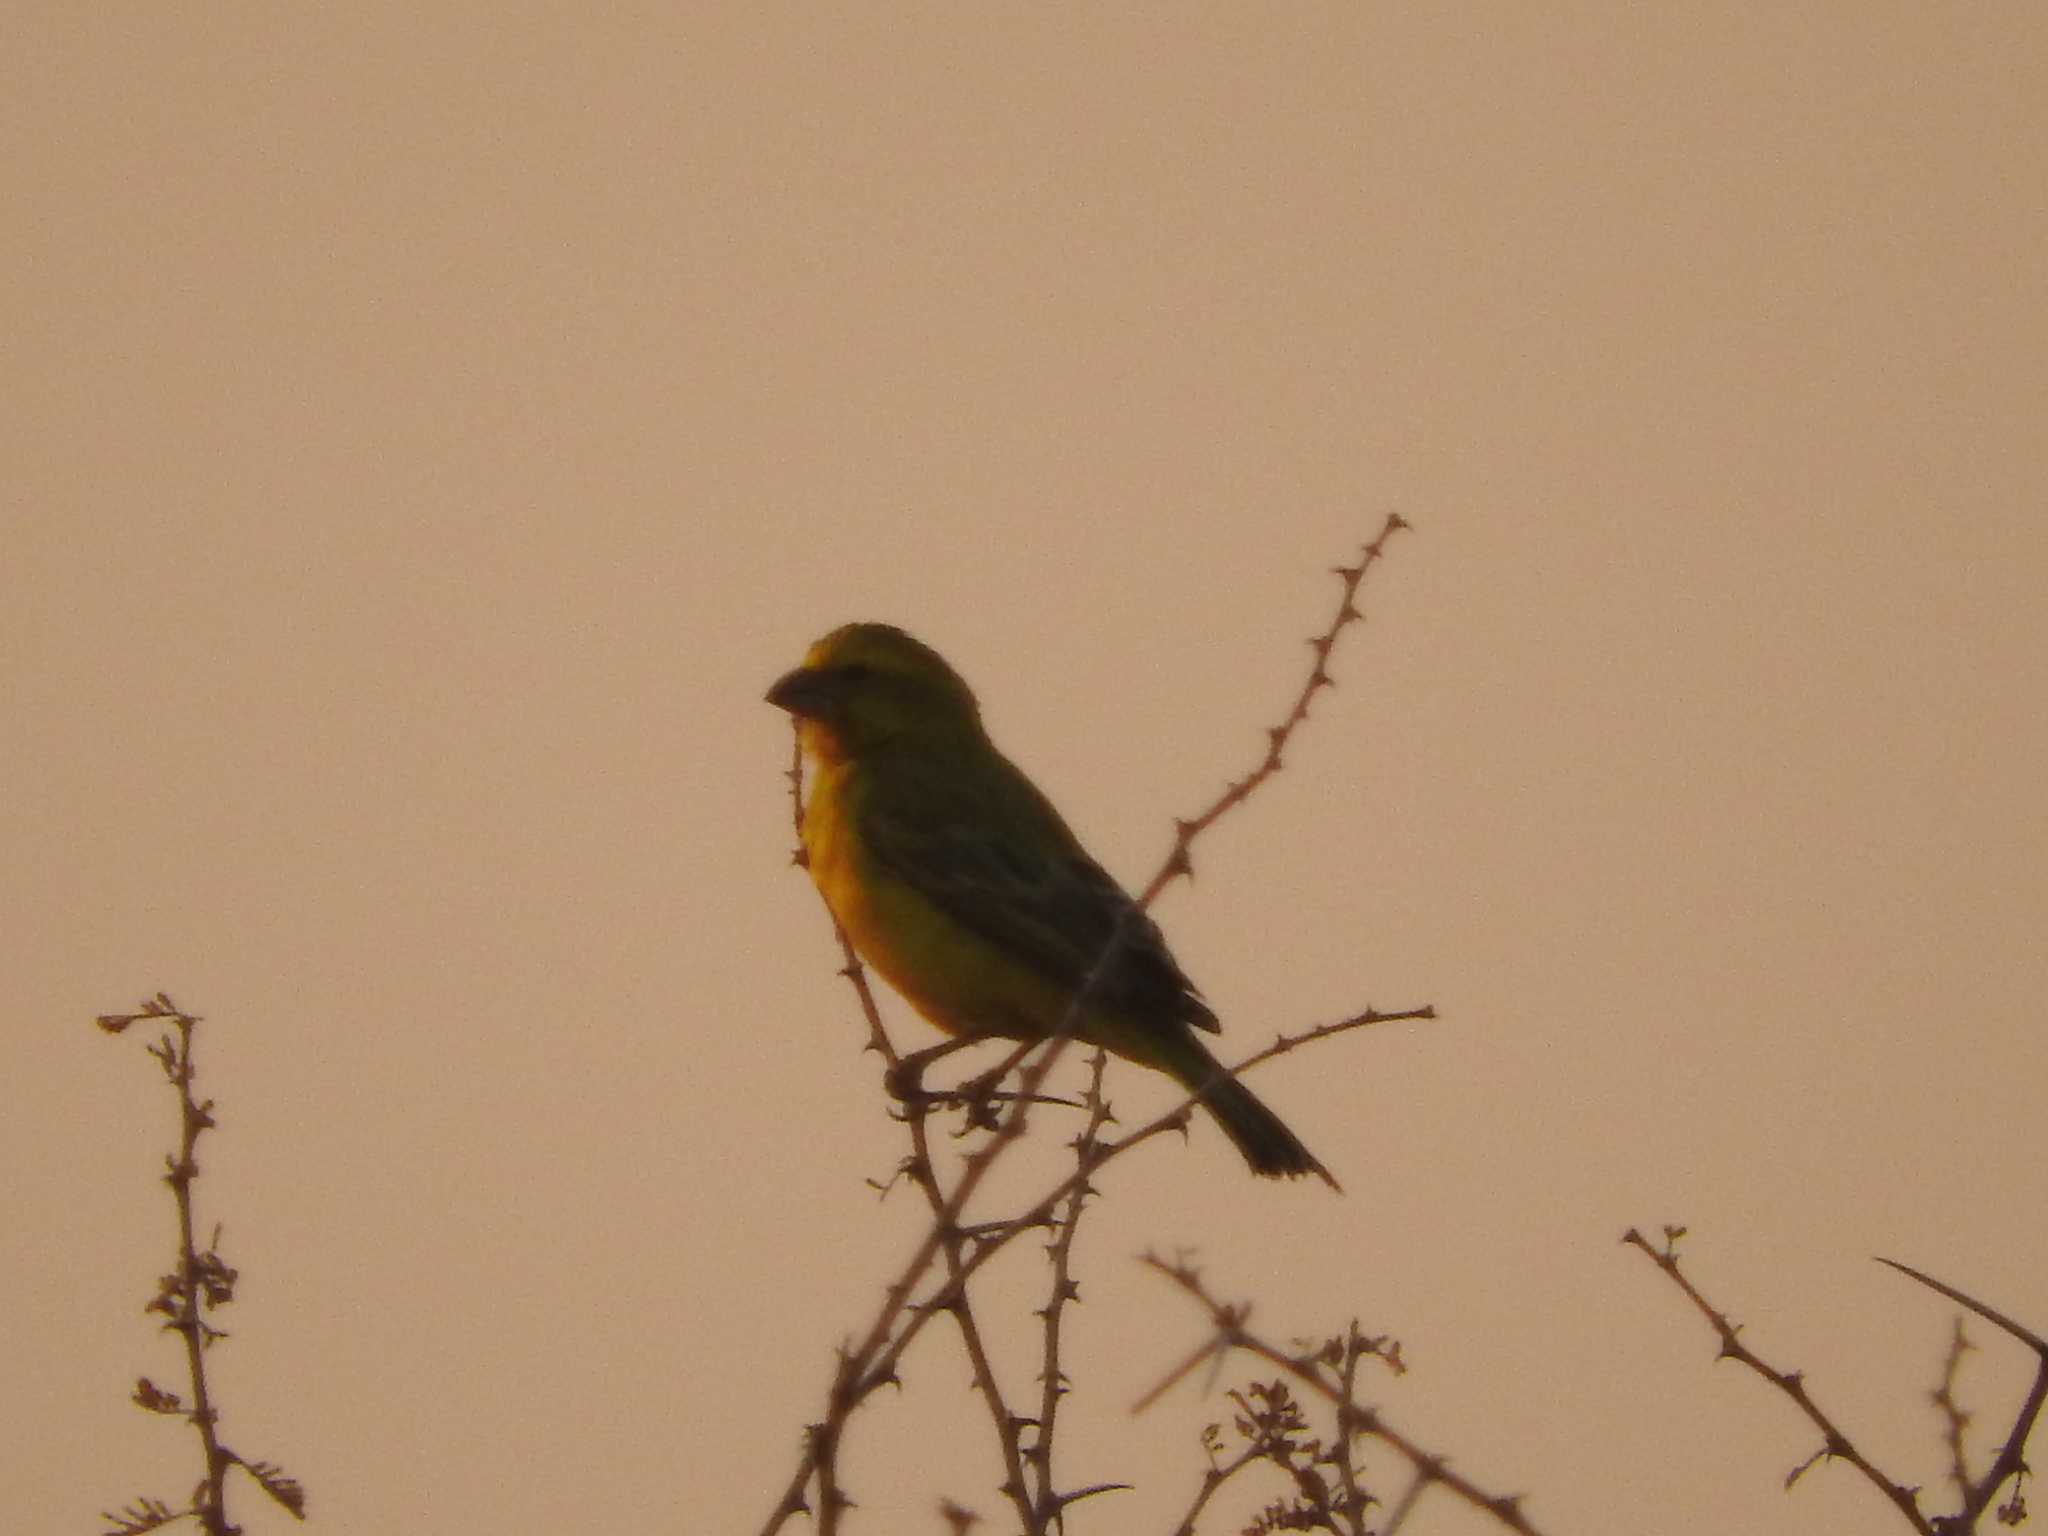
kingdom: Animalia
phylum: Chordata
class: Aves
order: Passeriformes
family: Fringillidae
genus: Crithagra
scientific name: Crithagra flaviventris
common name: Yellow canary
